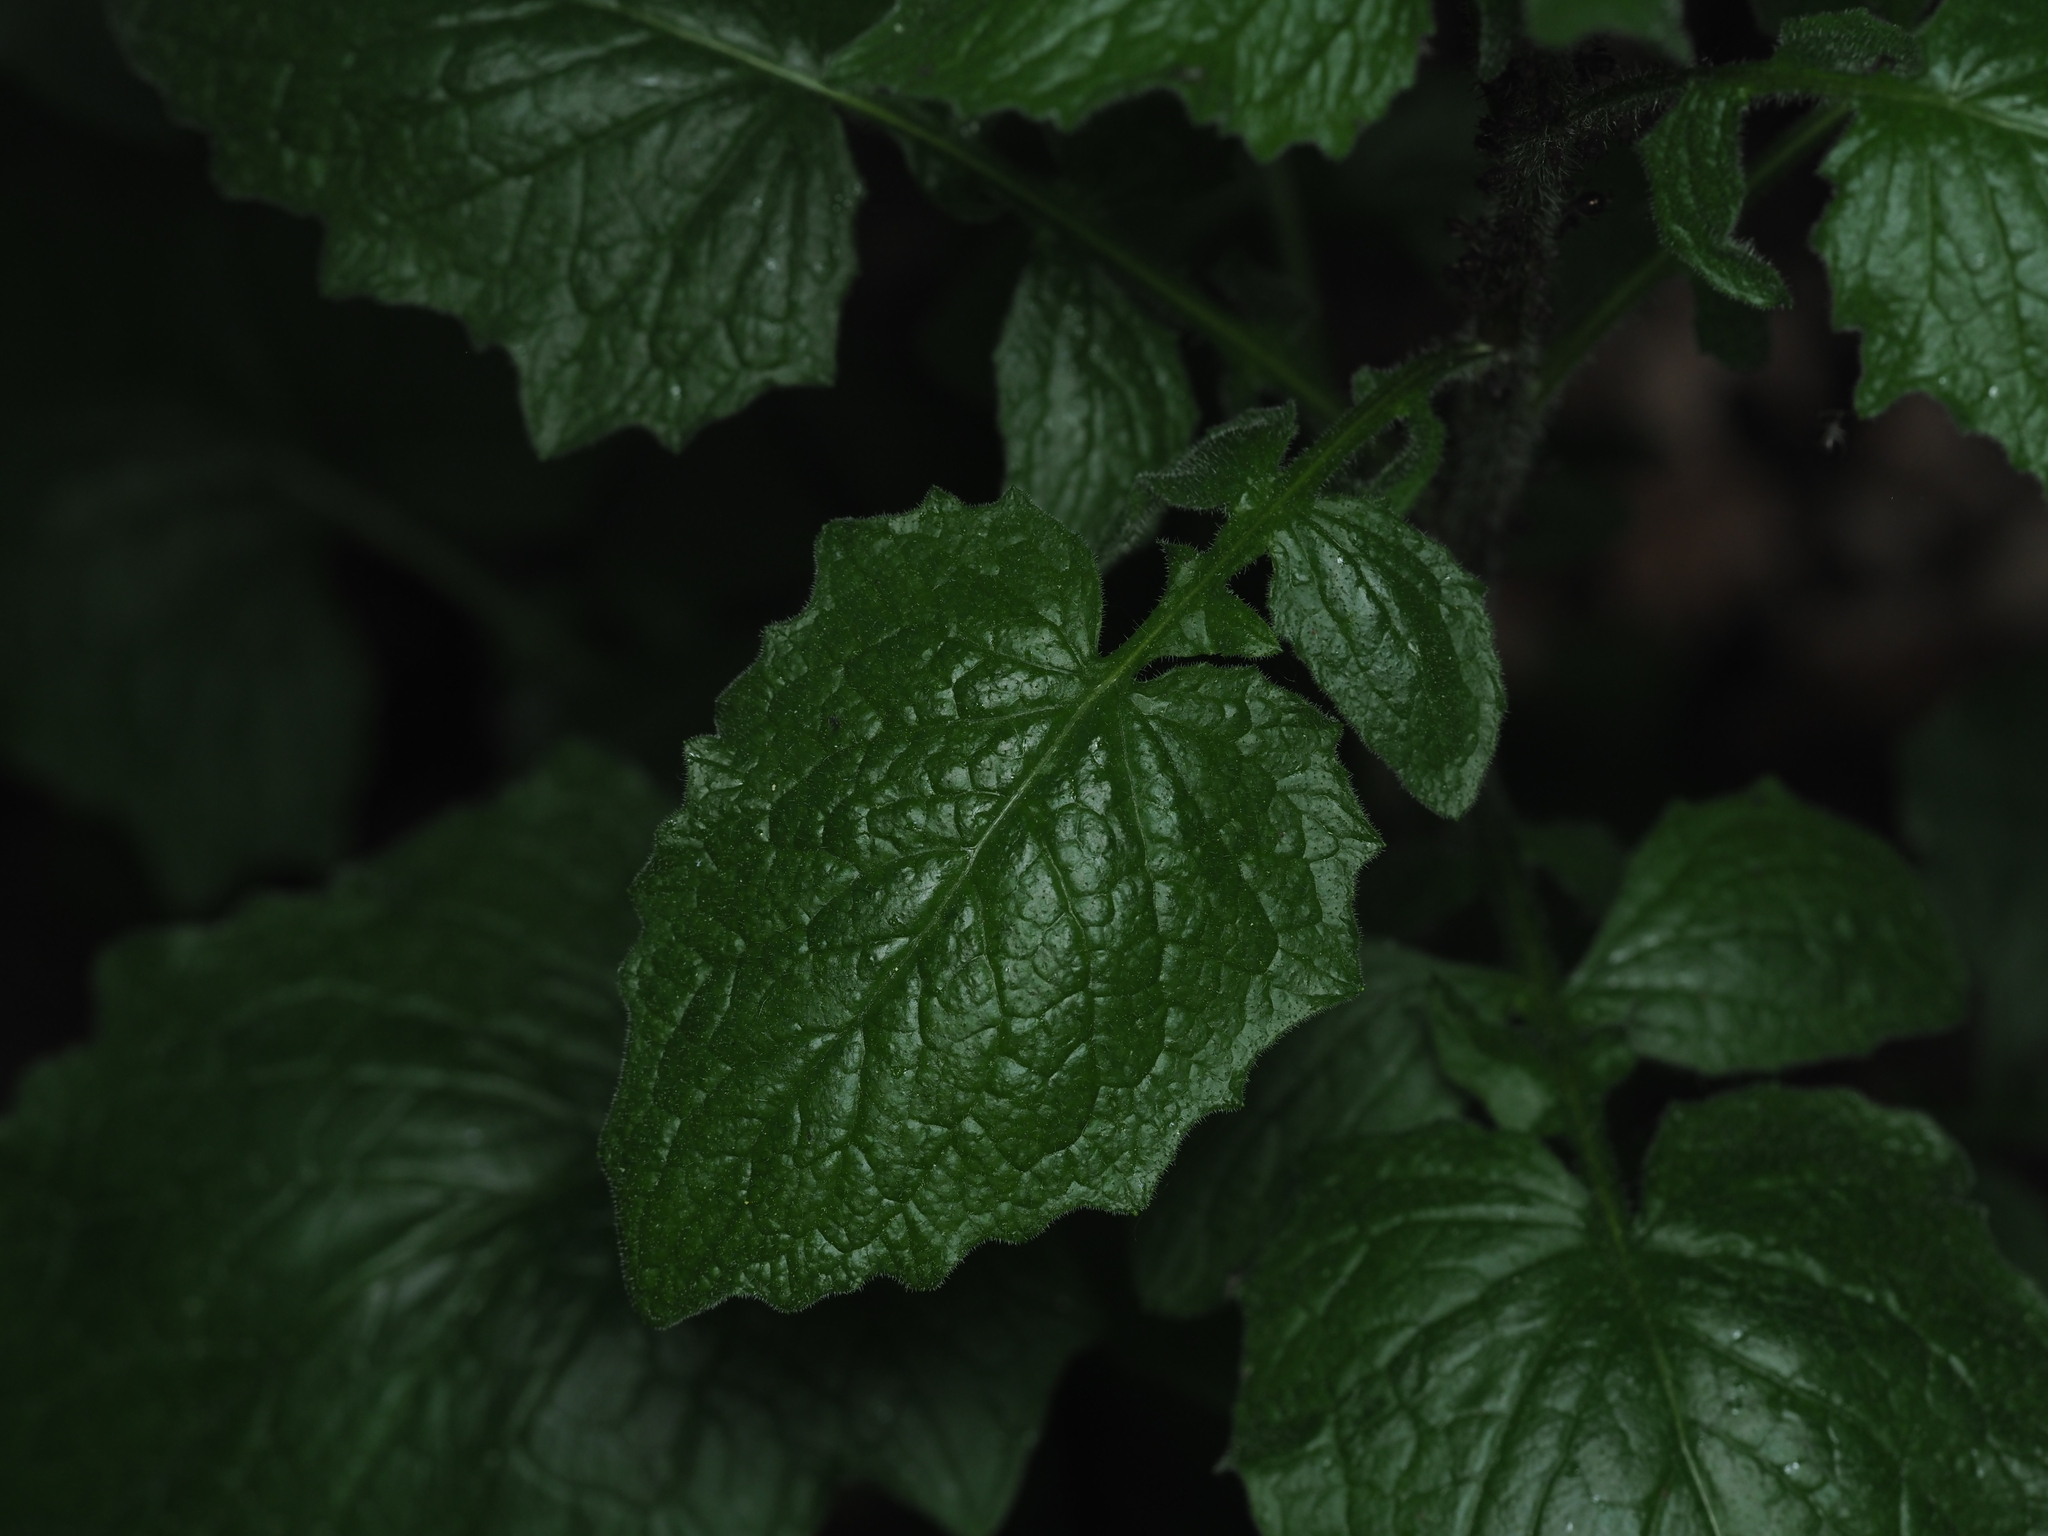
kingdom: Plantae
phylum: Tracheophyta
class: Magnoliopsida
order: Asterales
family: Asteraceae
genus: Lapsana
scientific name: Lapsana communis
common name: Nipplewort
